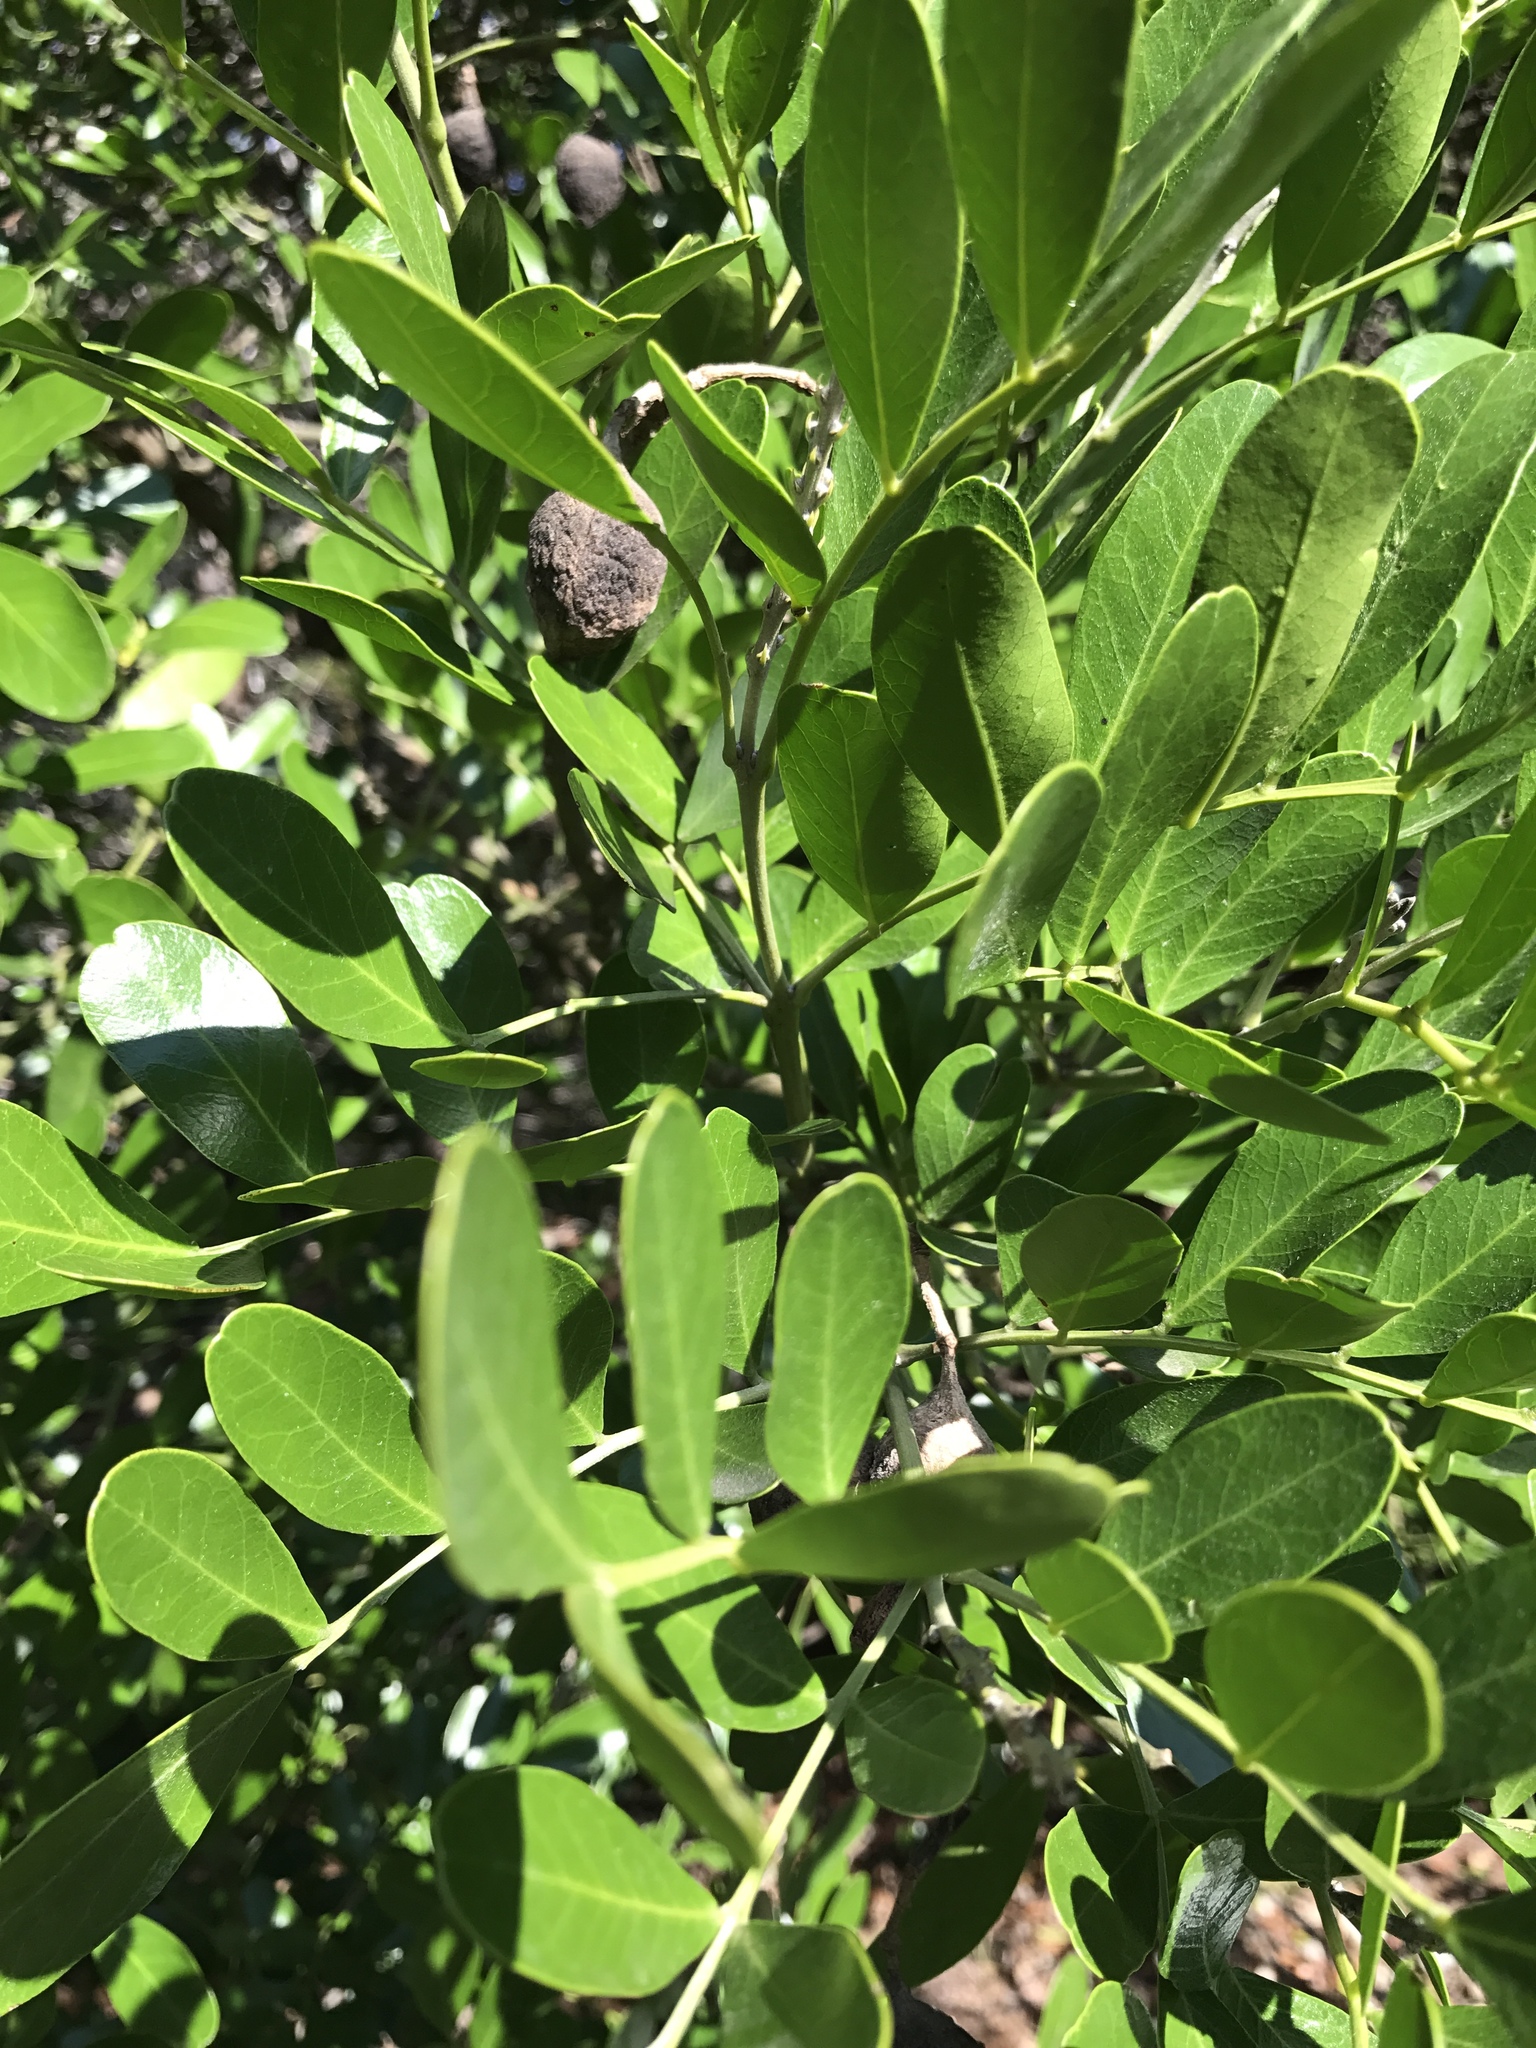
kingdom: Plantae
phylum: Tracheophyta
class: Magnoliopsida
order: Fabales
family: Fabaceae
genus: Dermatophyllum
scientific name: Dermatophyllum secundiflorum
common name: Texas-mountain-laurel
